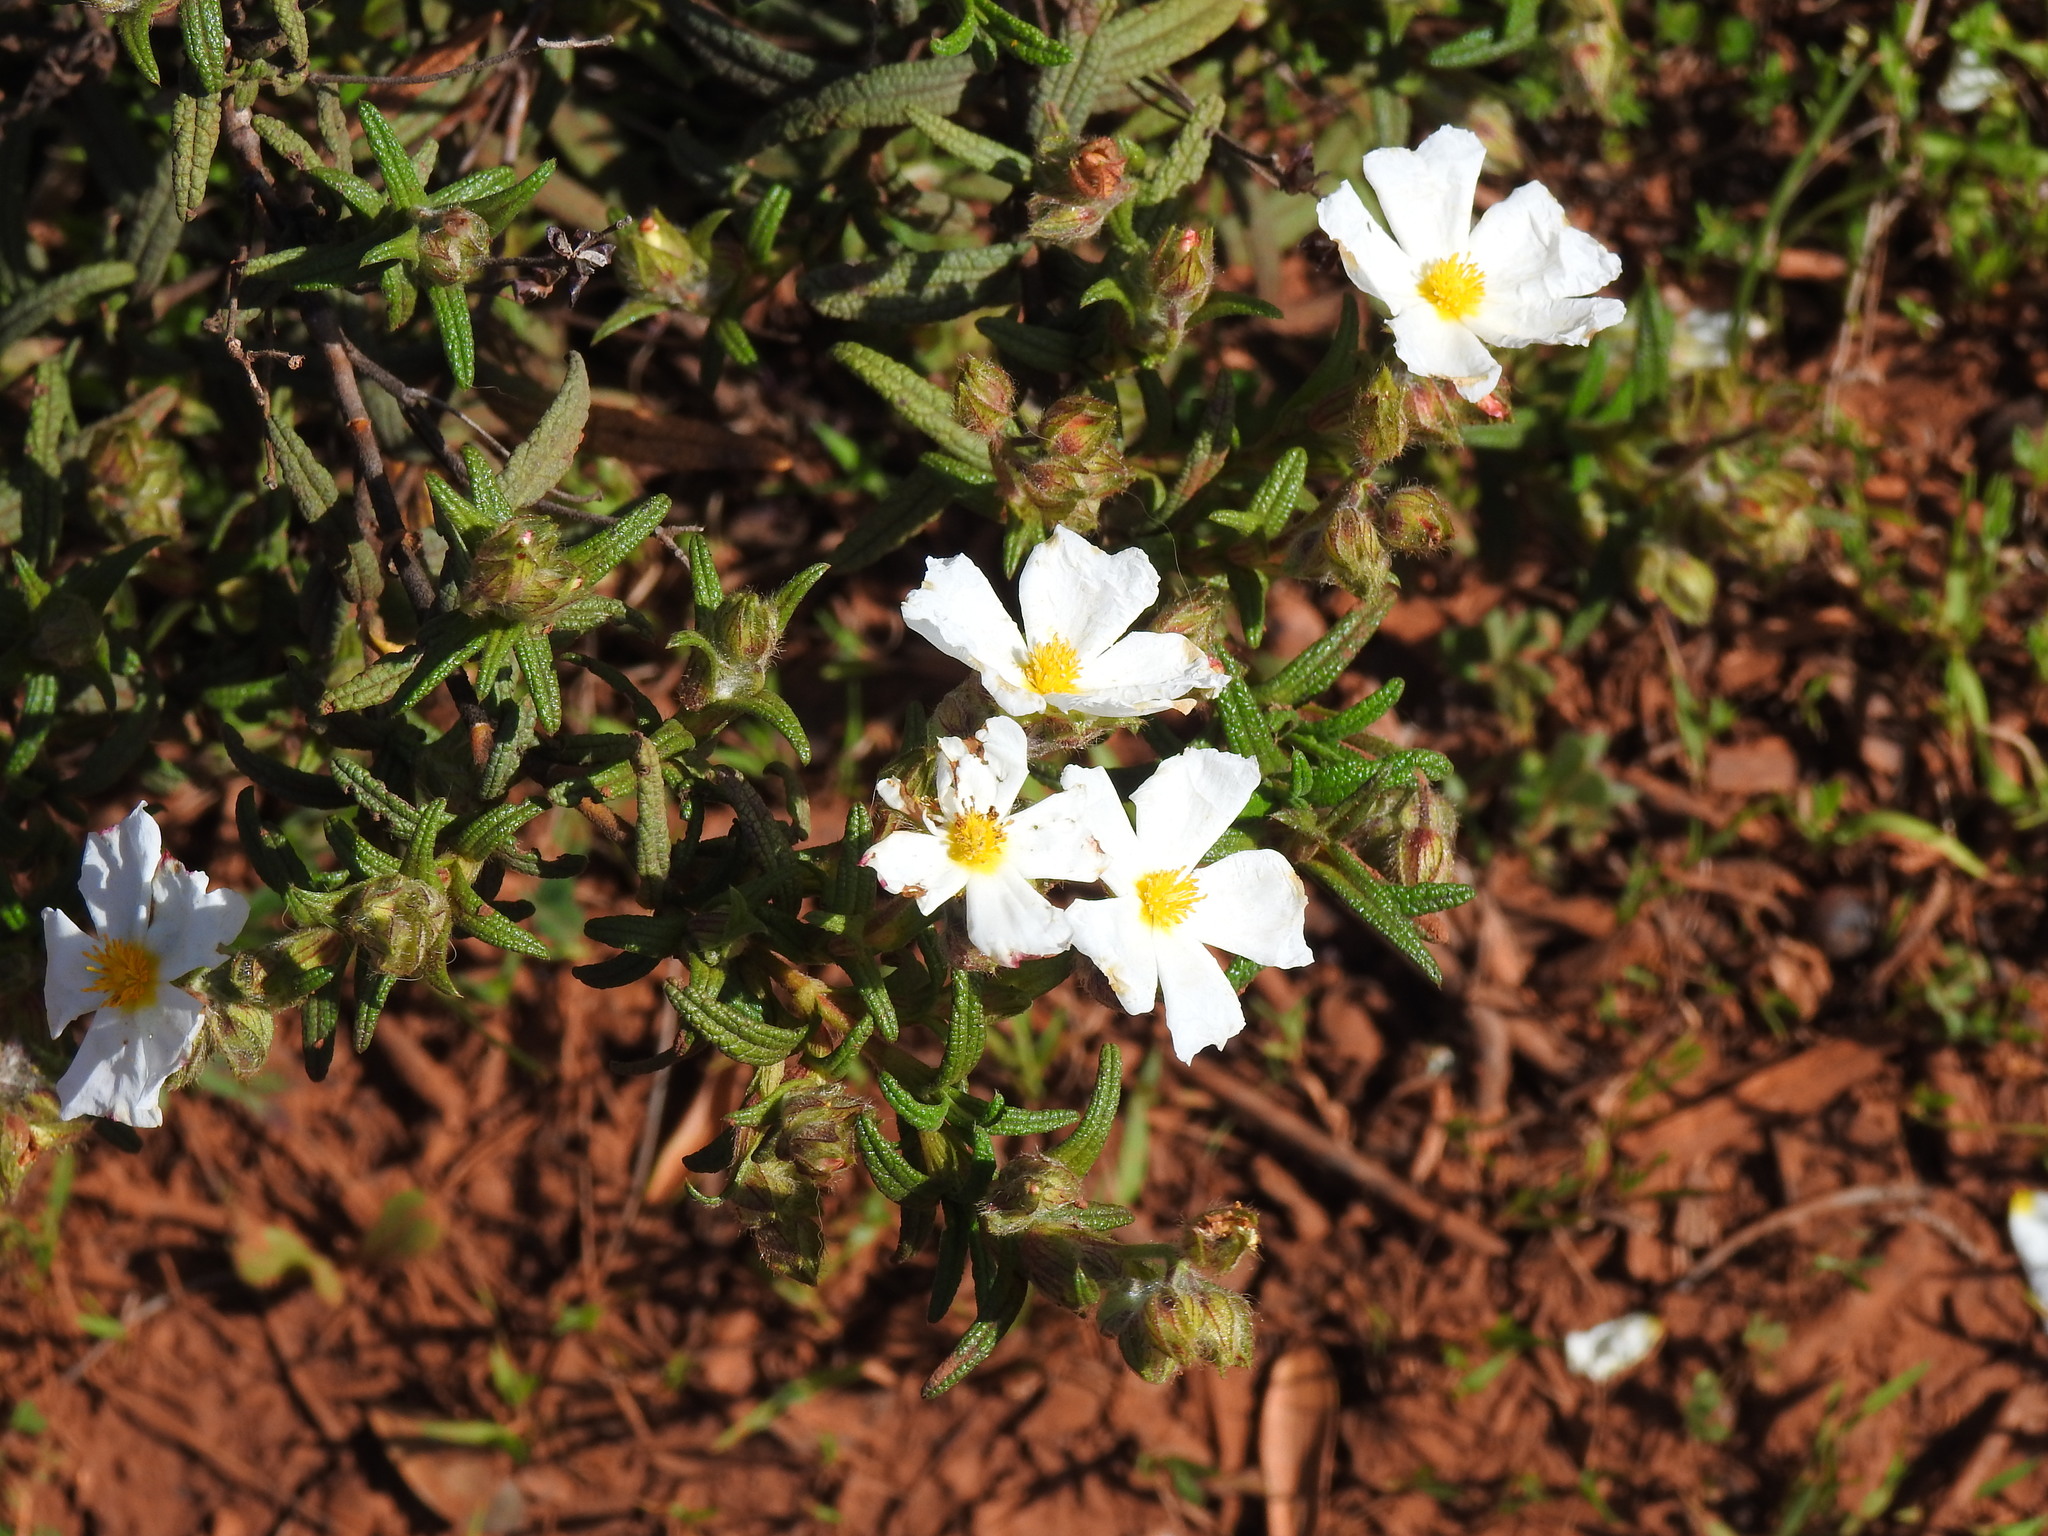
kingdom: Plantae
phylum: Tracheophyta
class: Magnoliopsida
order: Malvales
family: Cistaceae
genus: Cistus
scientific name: Cistus monspeliensis
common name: Montpelier cistus
